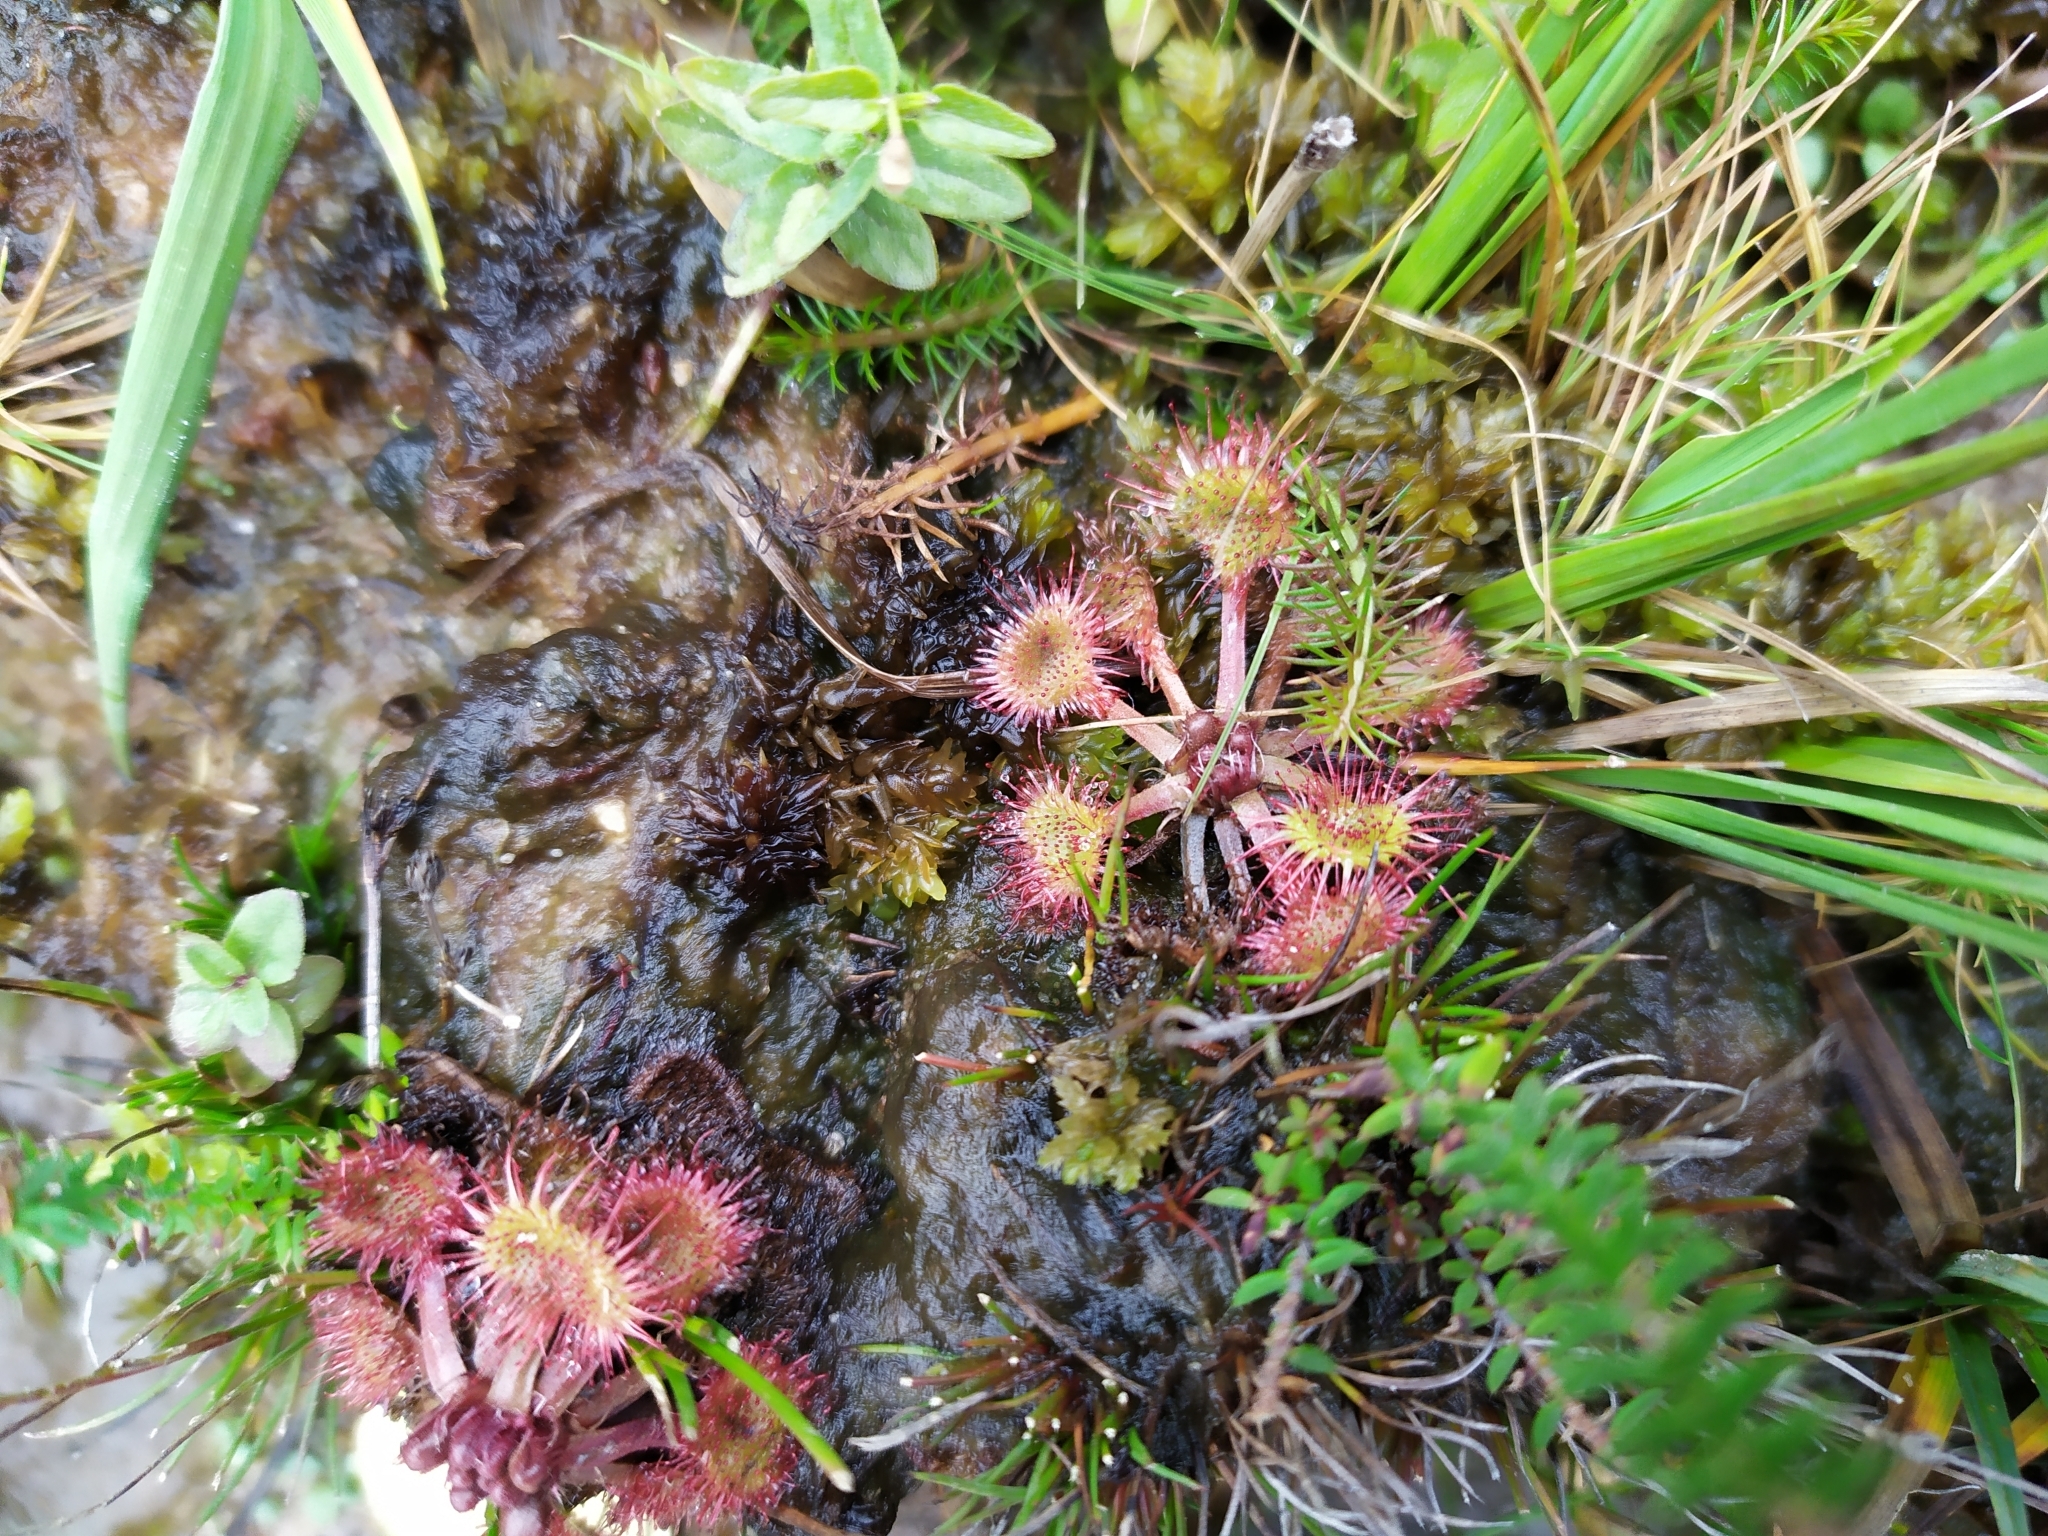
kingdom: Plantae
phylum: Tracheophyta
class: Magnoliopsida
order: Caryophyllales
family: Droseraceae
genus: Drosera
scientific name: Drosera rotundifolia
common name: Round-leaved sundew
